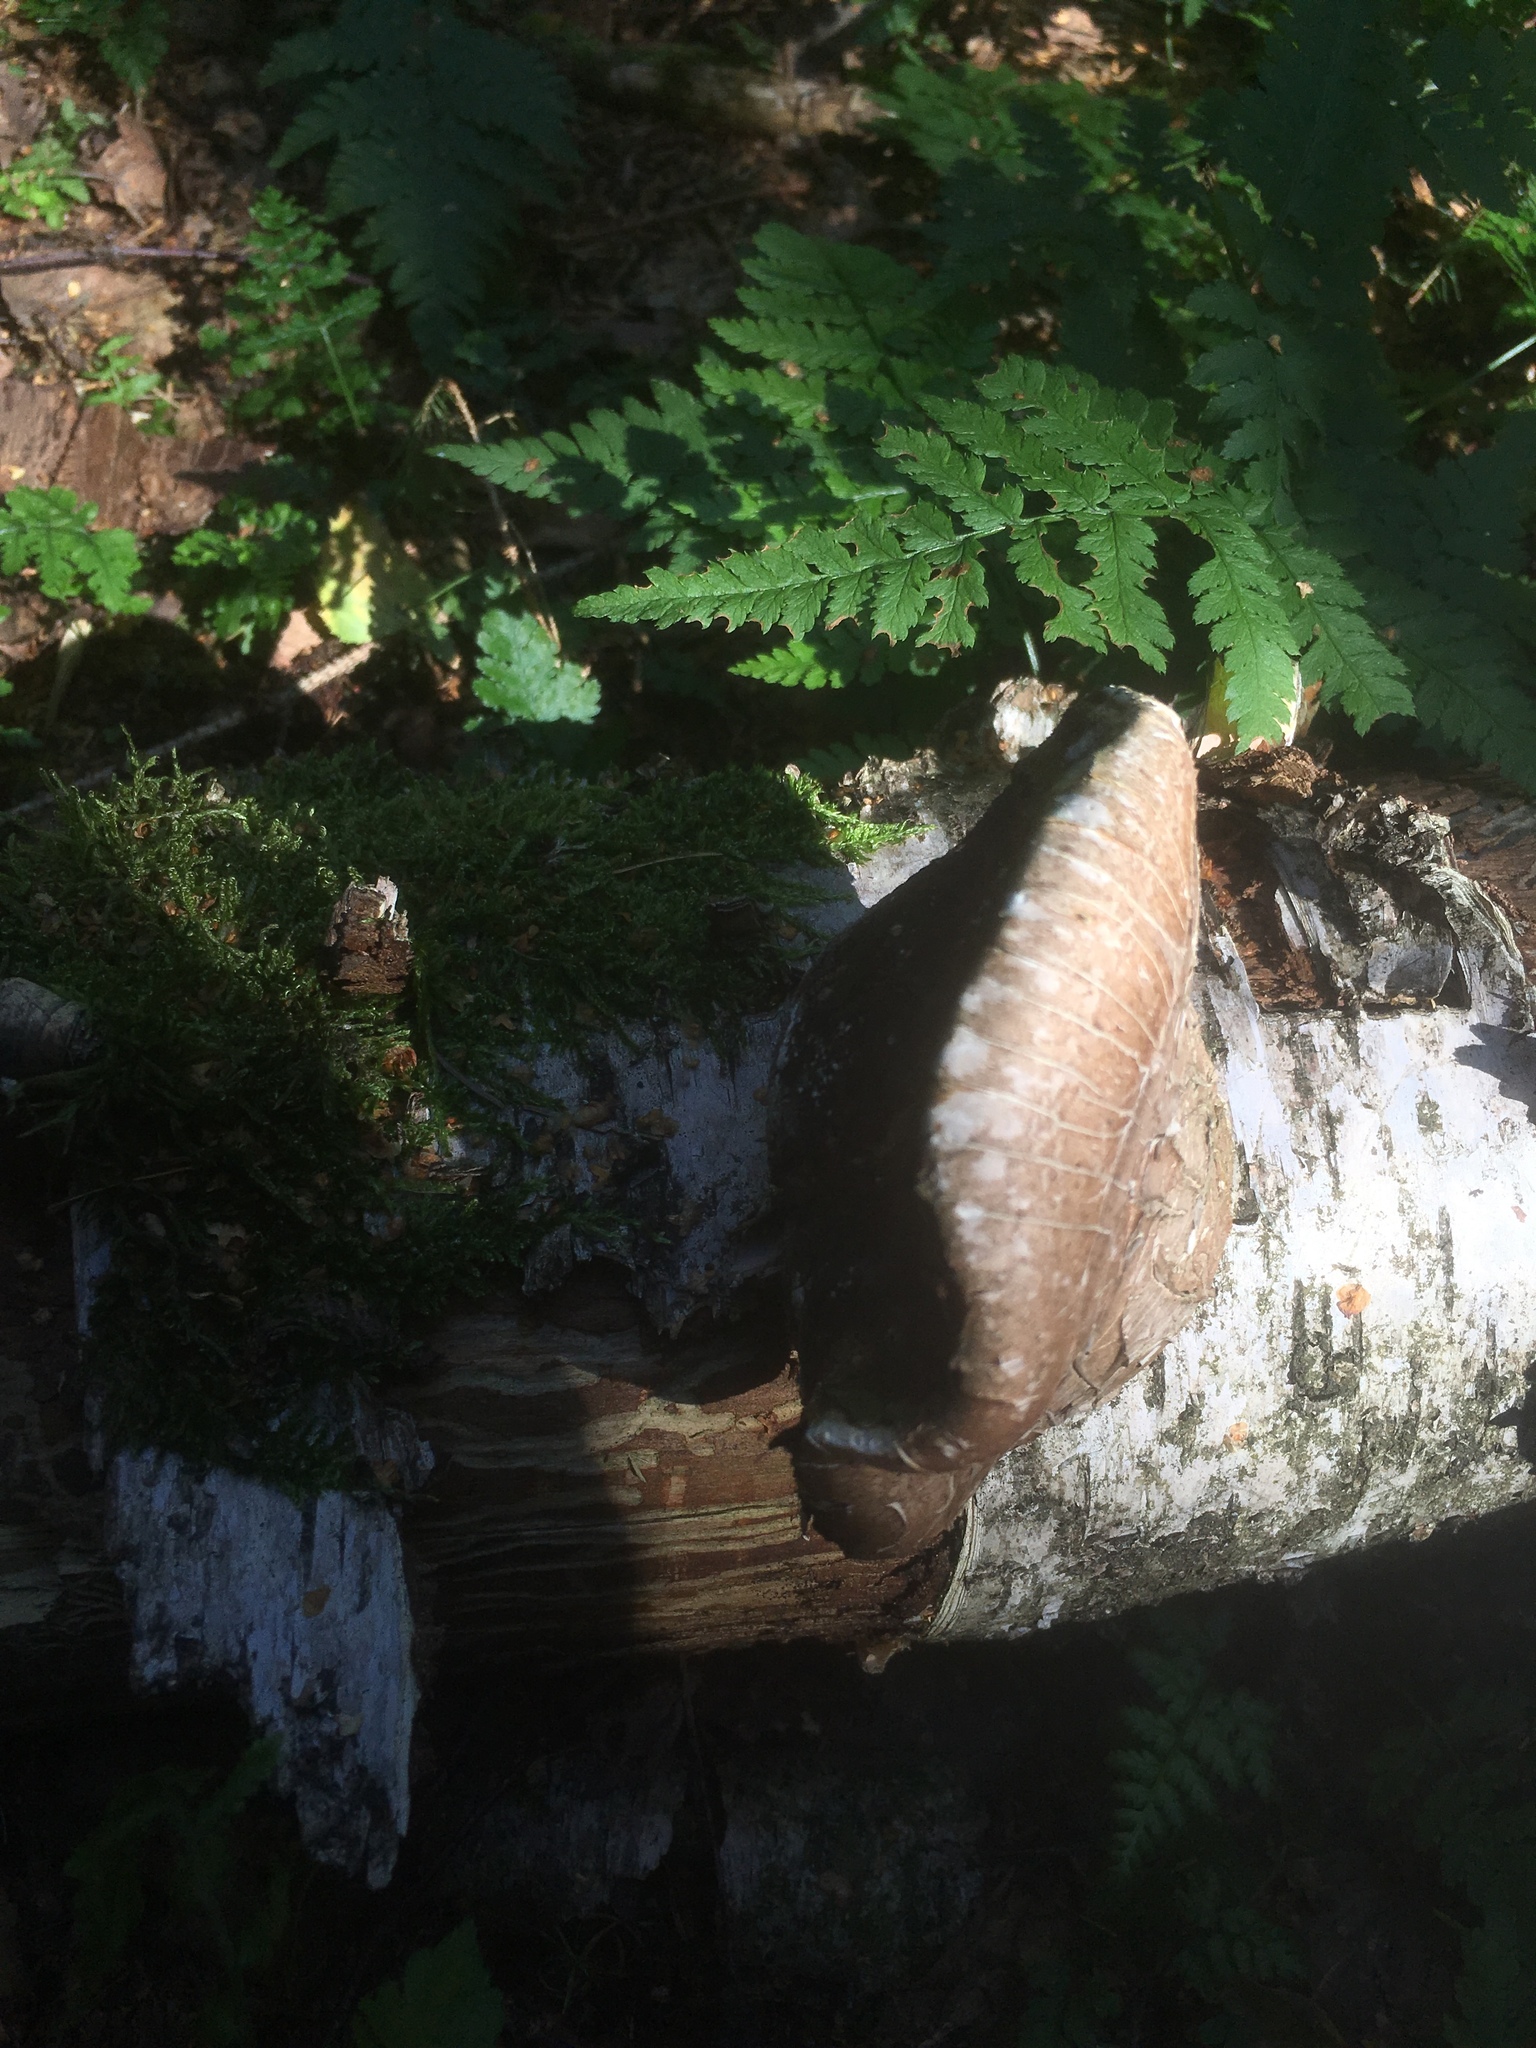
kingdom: Fungi
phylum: Basidiomycota
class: Agaricomycetes
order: Polyporales
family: Fomitopsidaceae
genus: Fomitopsis
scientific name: Fomitopsis betulina
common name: Birch polypore
